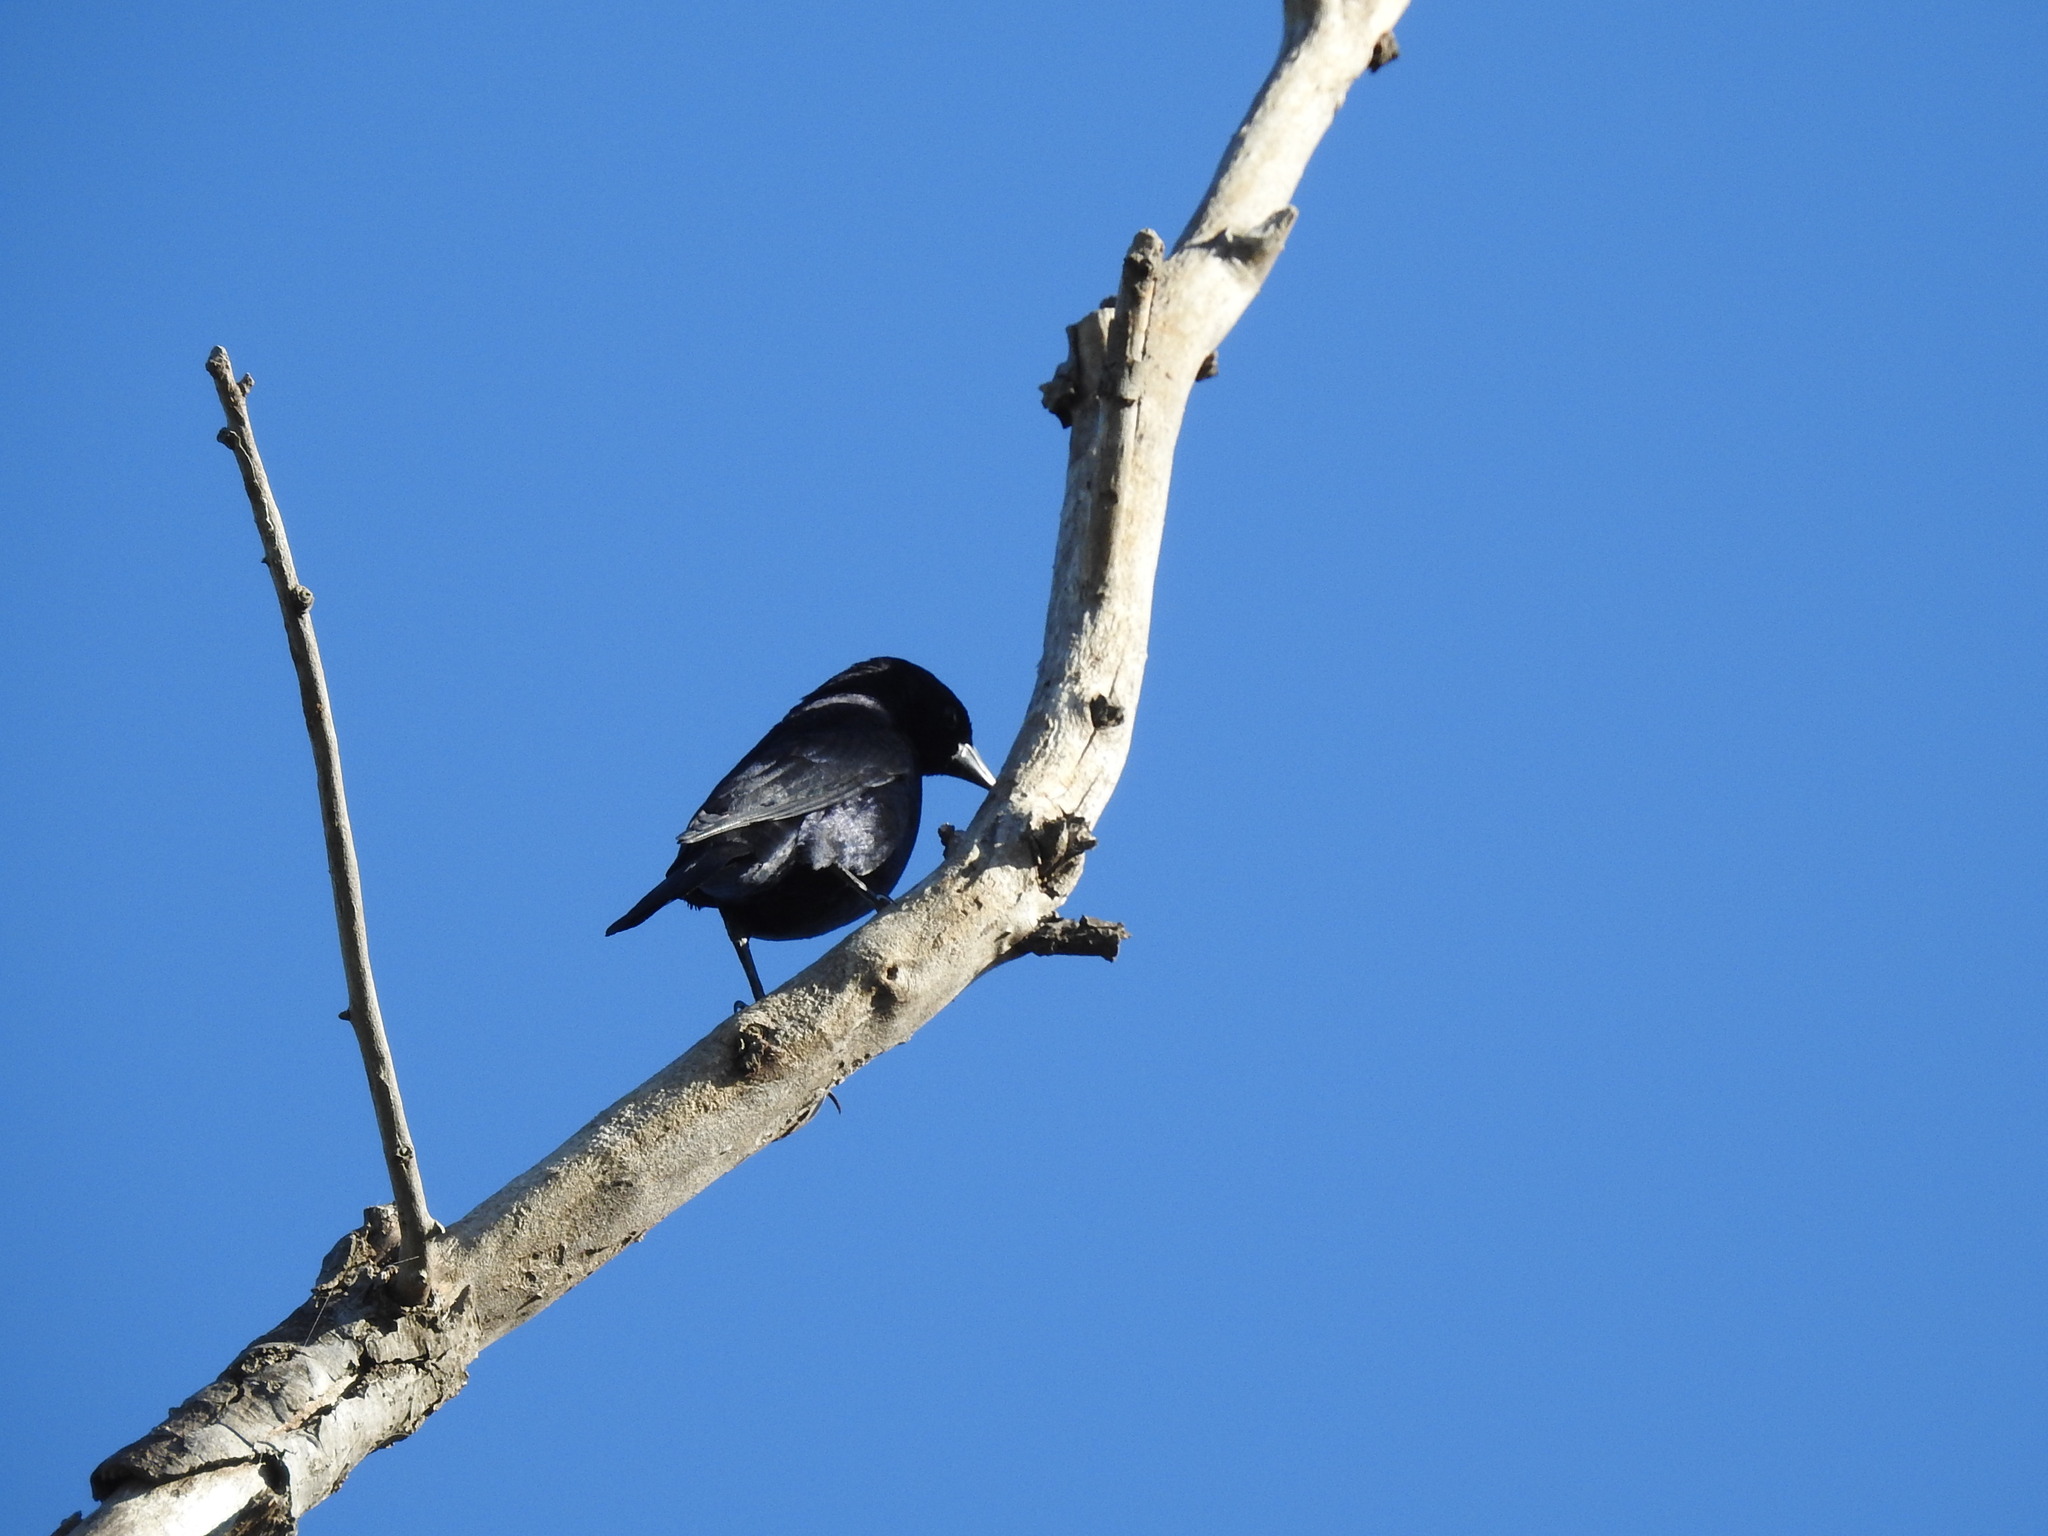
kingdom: Animalia
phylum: Chordata
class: Aves
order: Passeriformes
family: Icteridae
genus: Molothrus
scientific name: Molothrus bonariensis
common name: Shiny cowbird
